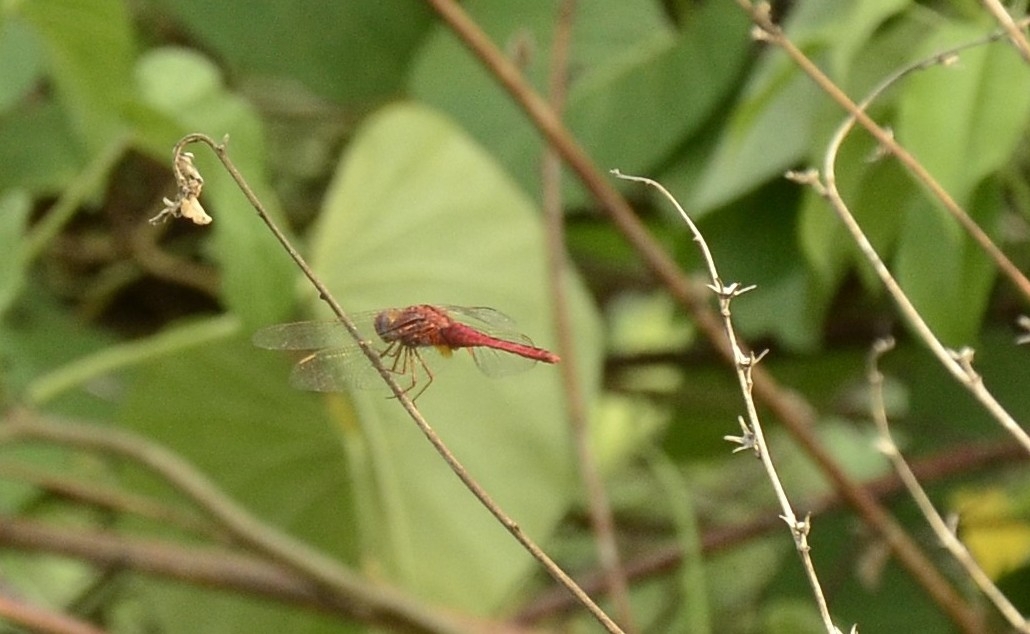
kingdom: Animalia
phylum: Arthropoda
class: Insecta
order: Odonata
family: Libellulidae
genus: Crocothemis
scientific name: Crocothemis servilia
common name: Scarlet skimmer
